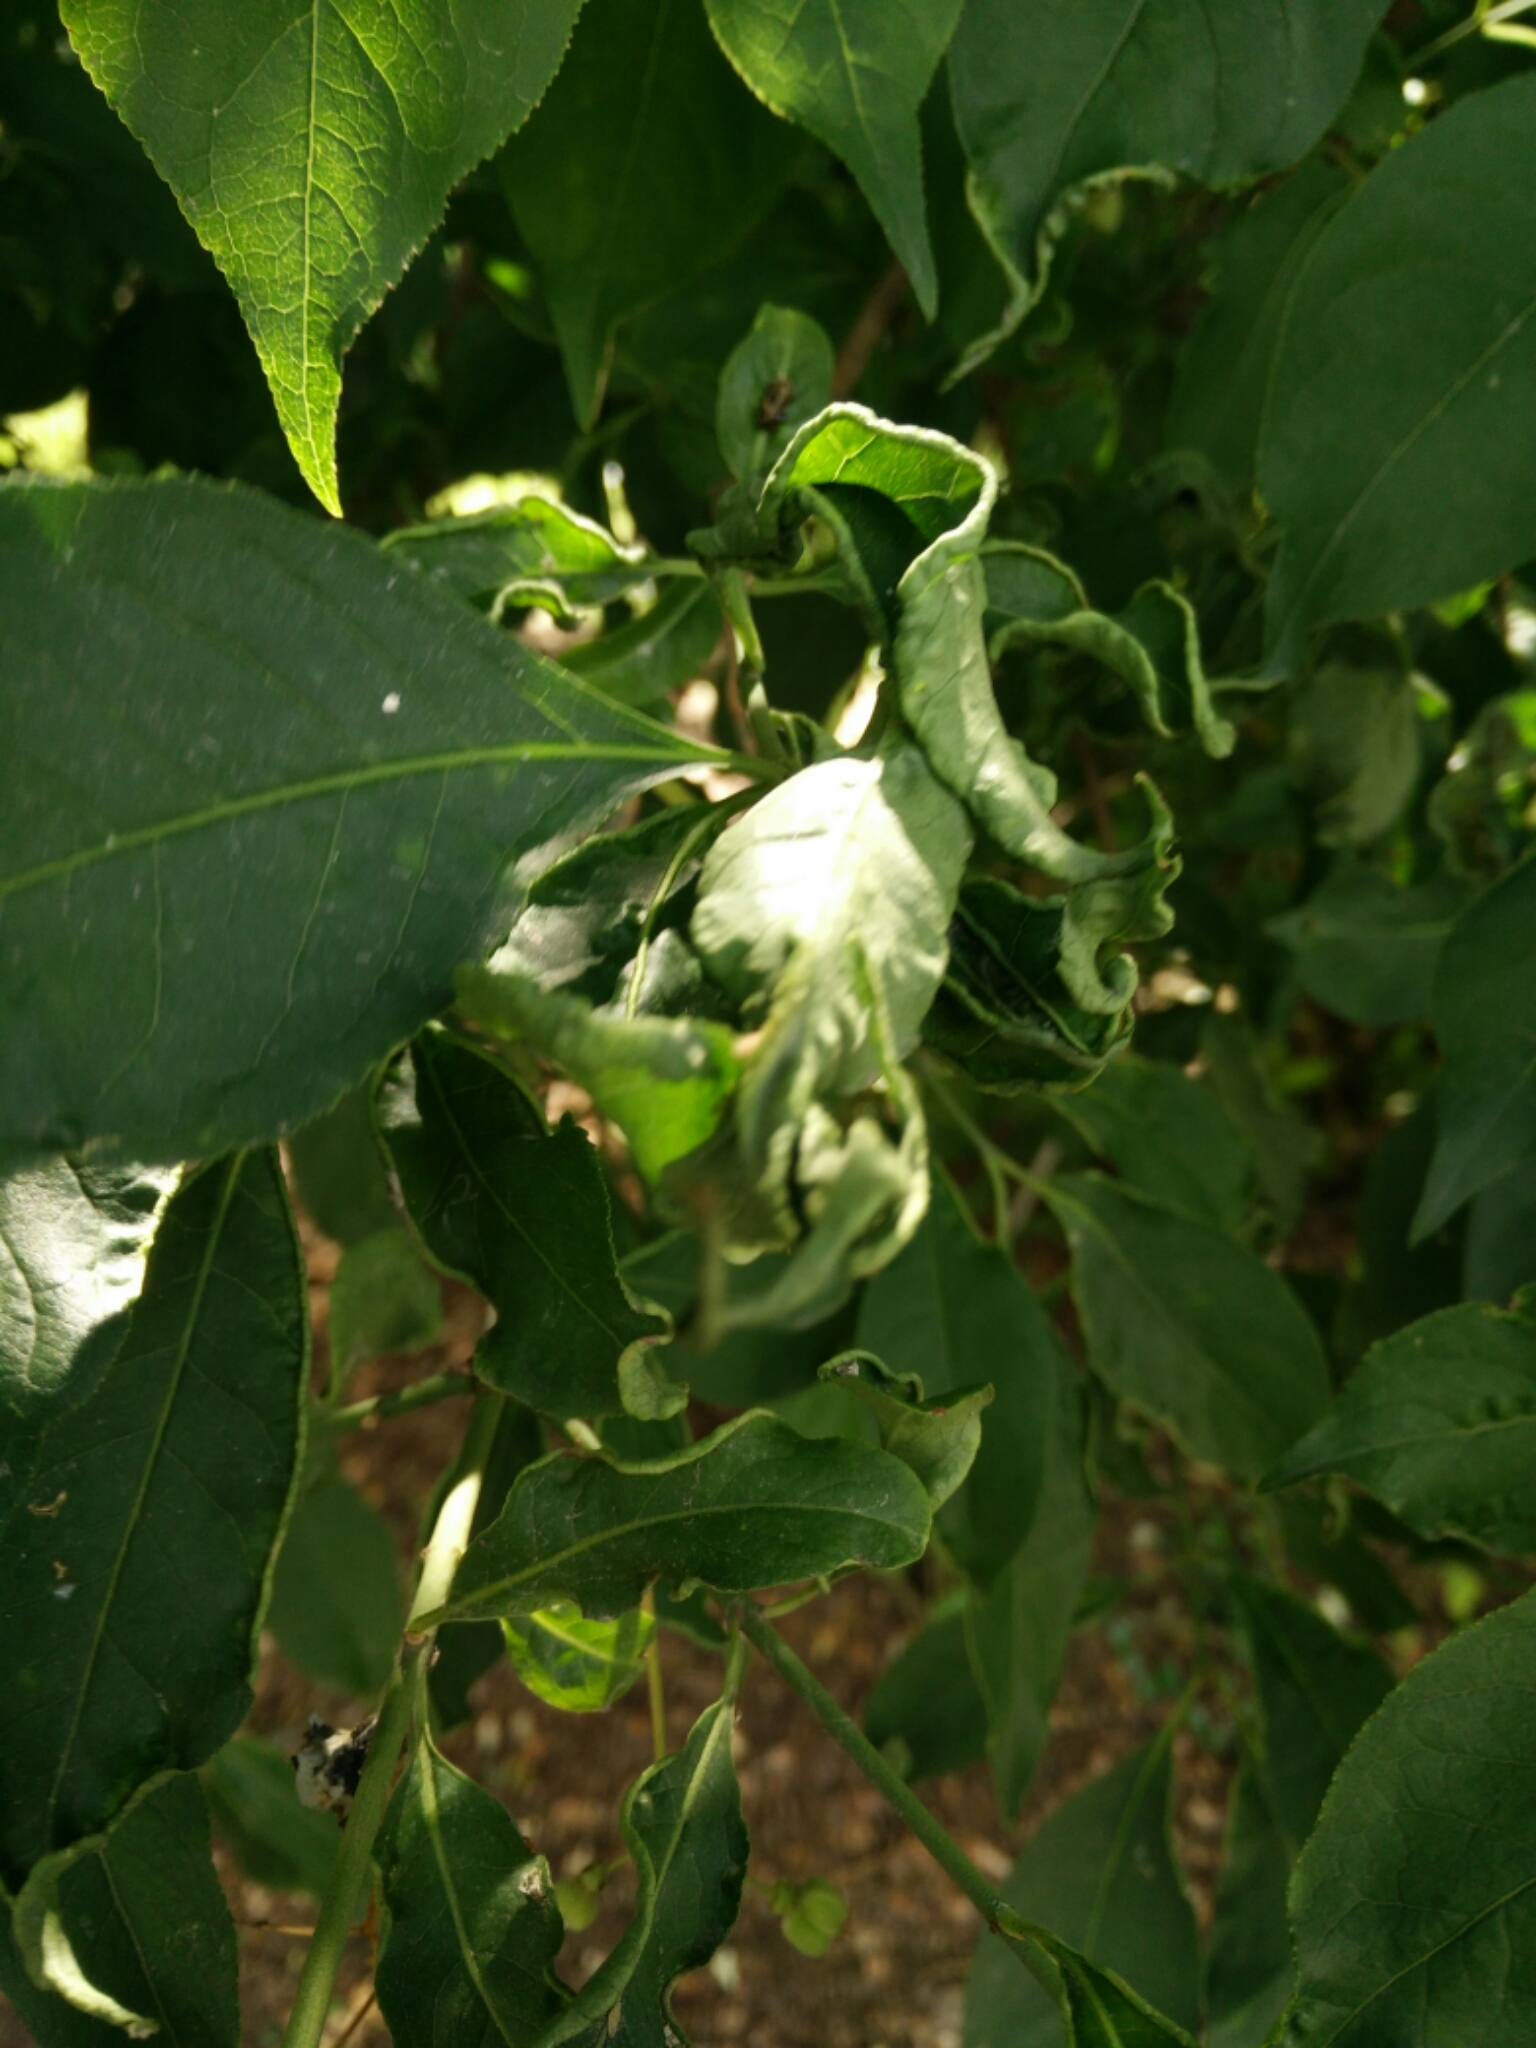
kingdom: Animalia
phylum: Arthropoda
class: Arachnida
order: Trombidiformes
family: Eriophyidae
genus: Stenacis
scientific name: Stenacis evonymi
